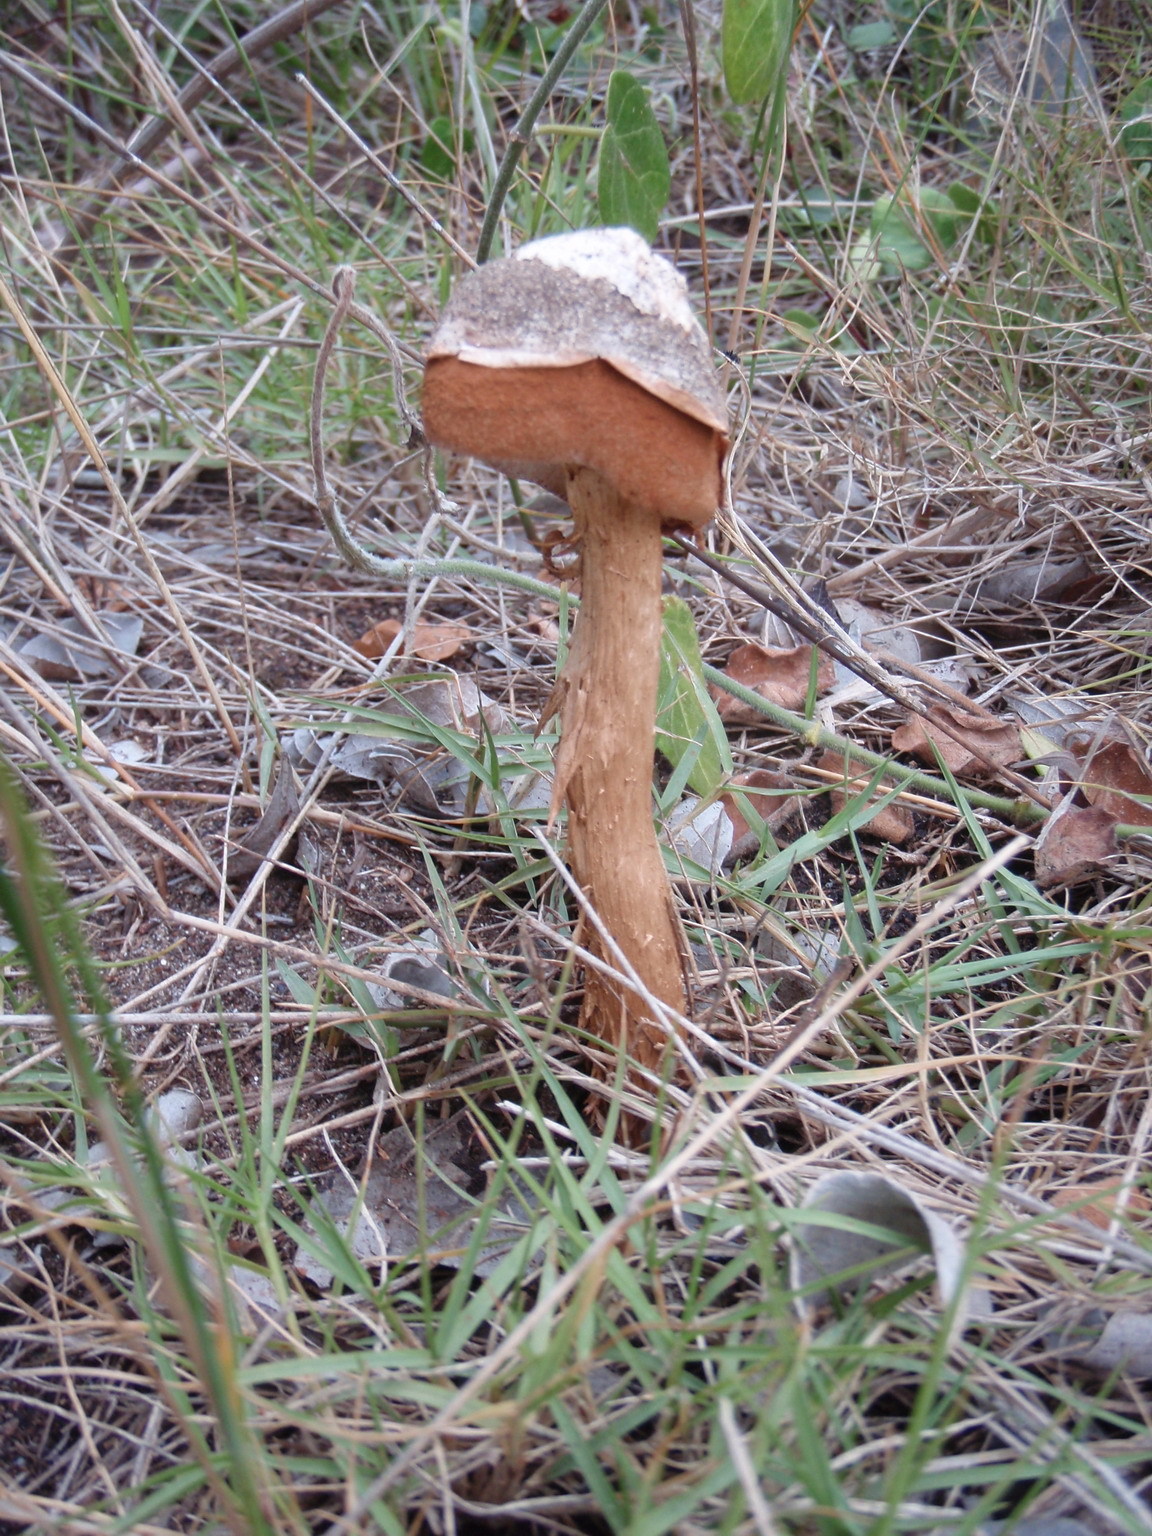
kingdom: Fungi
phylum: Basidiomycota
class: Agaricomycetes
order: Agaricales
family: Agaricaceae
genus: Battarrea
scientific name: Battarrea phalloides
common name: Sandy stiltball
